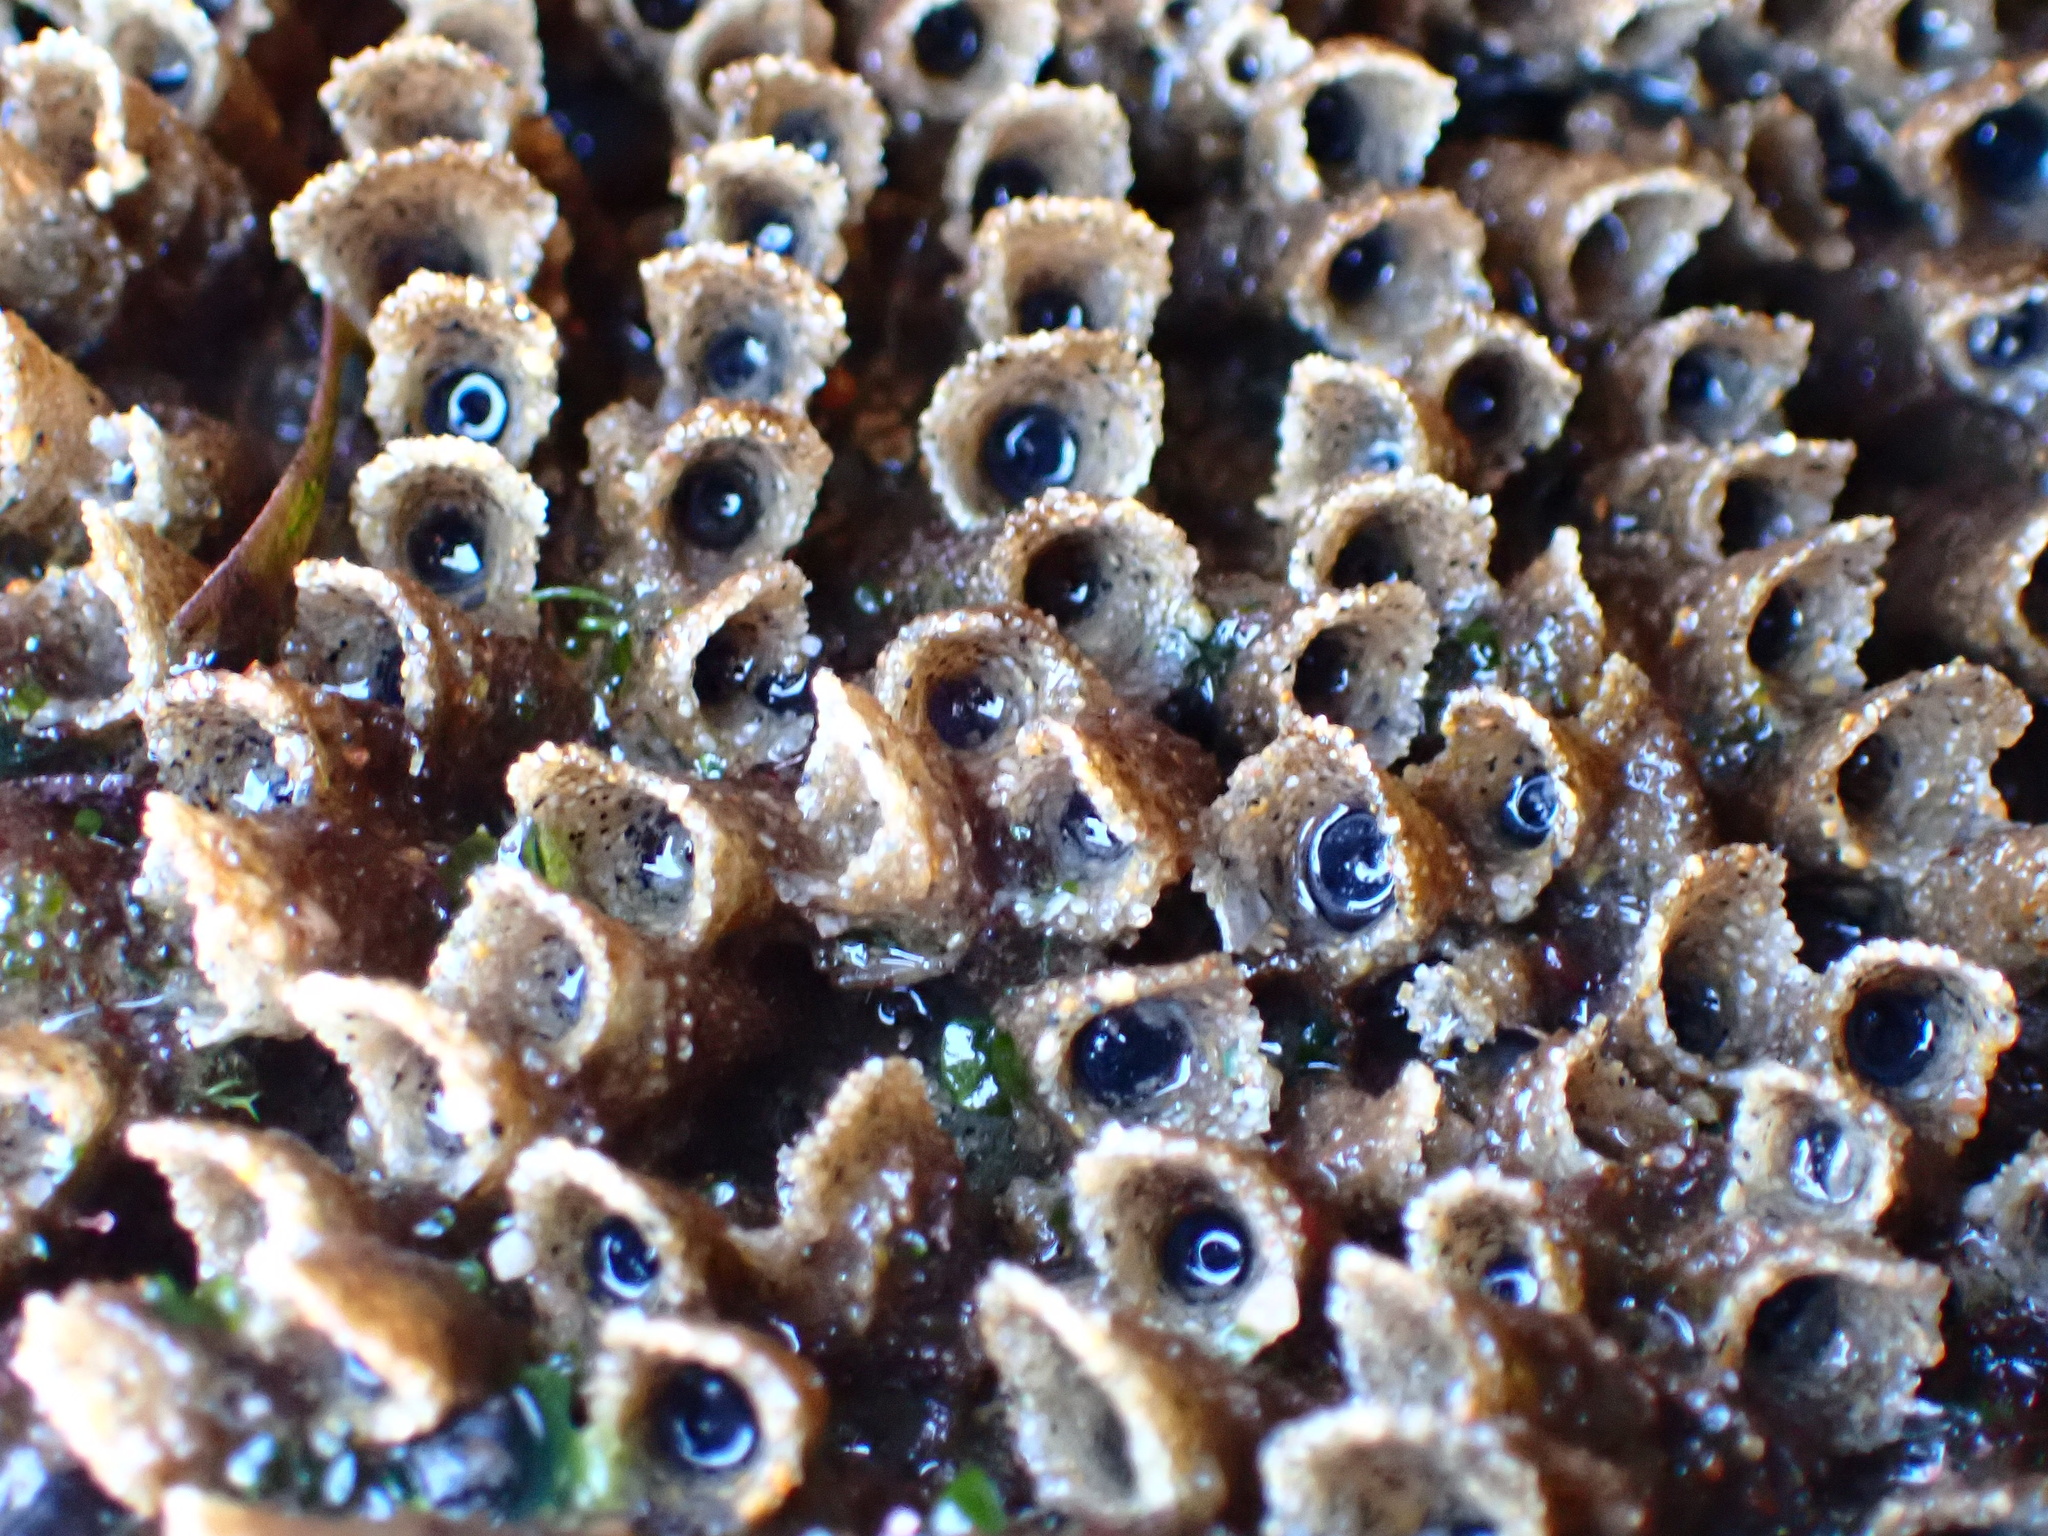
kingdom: Animalia
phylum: Annelida
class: Polychaeta
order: Sabellida
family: Sabellariidae
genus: Phragmatopoma
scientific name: Phragmatopoma californica
